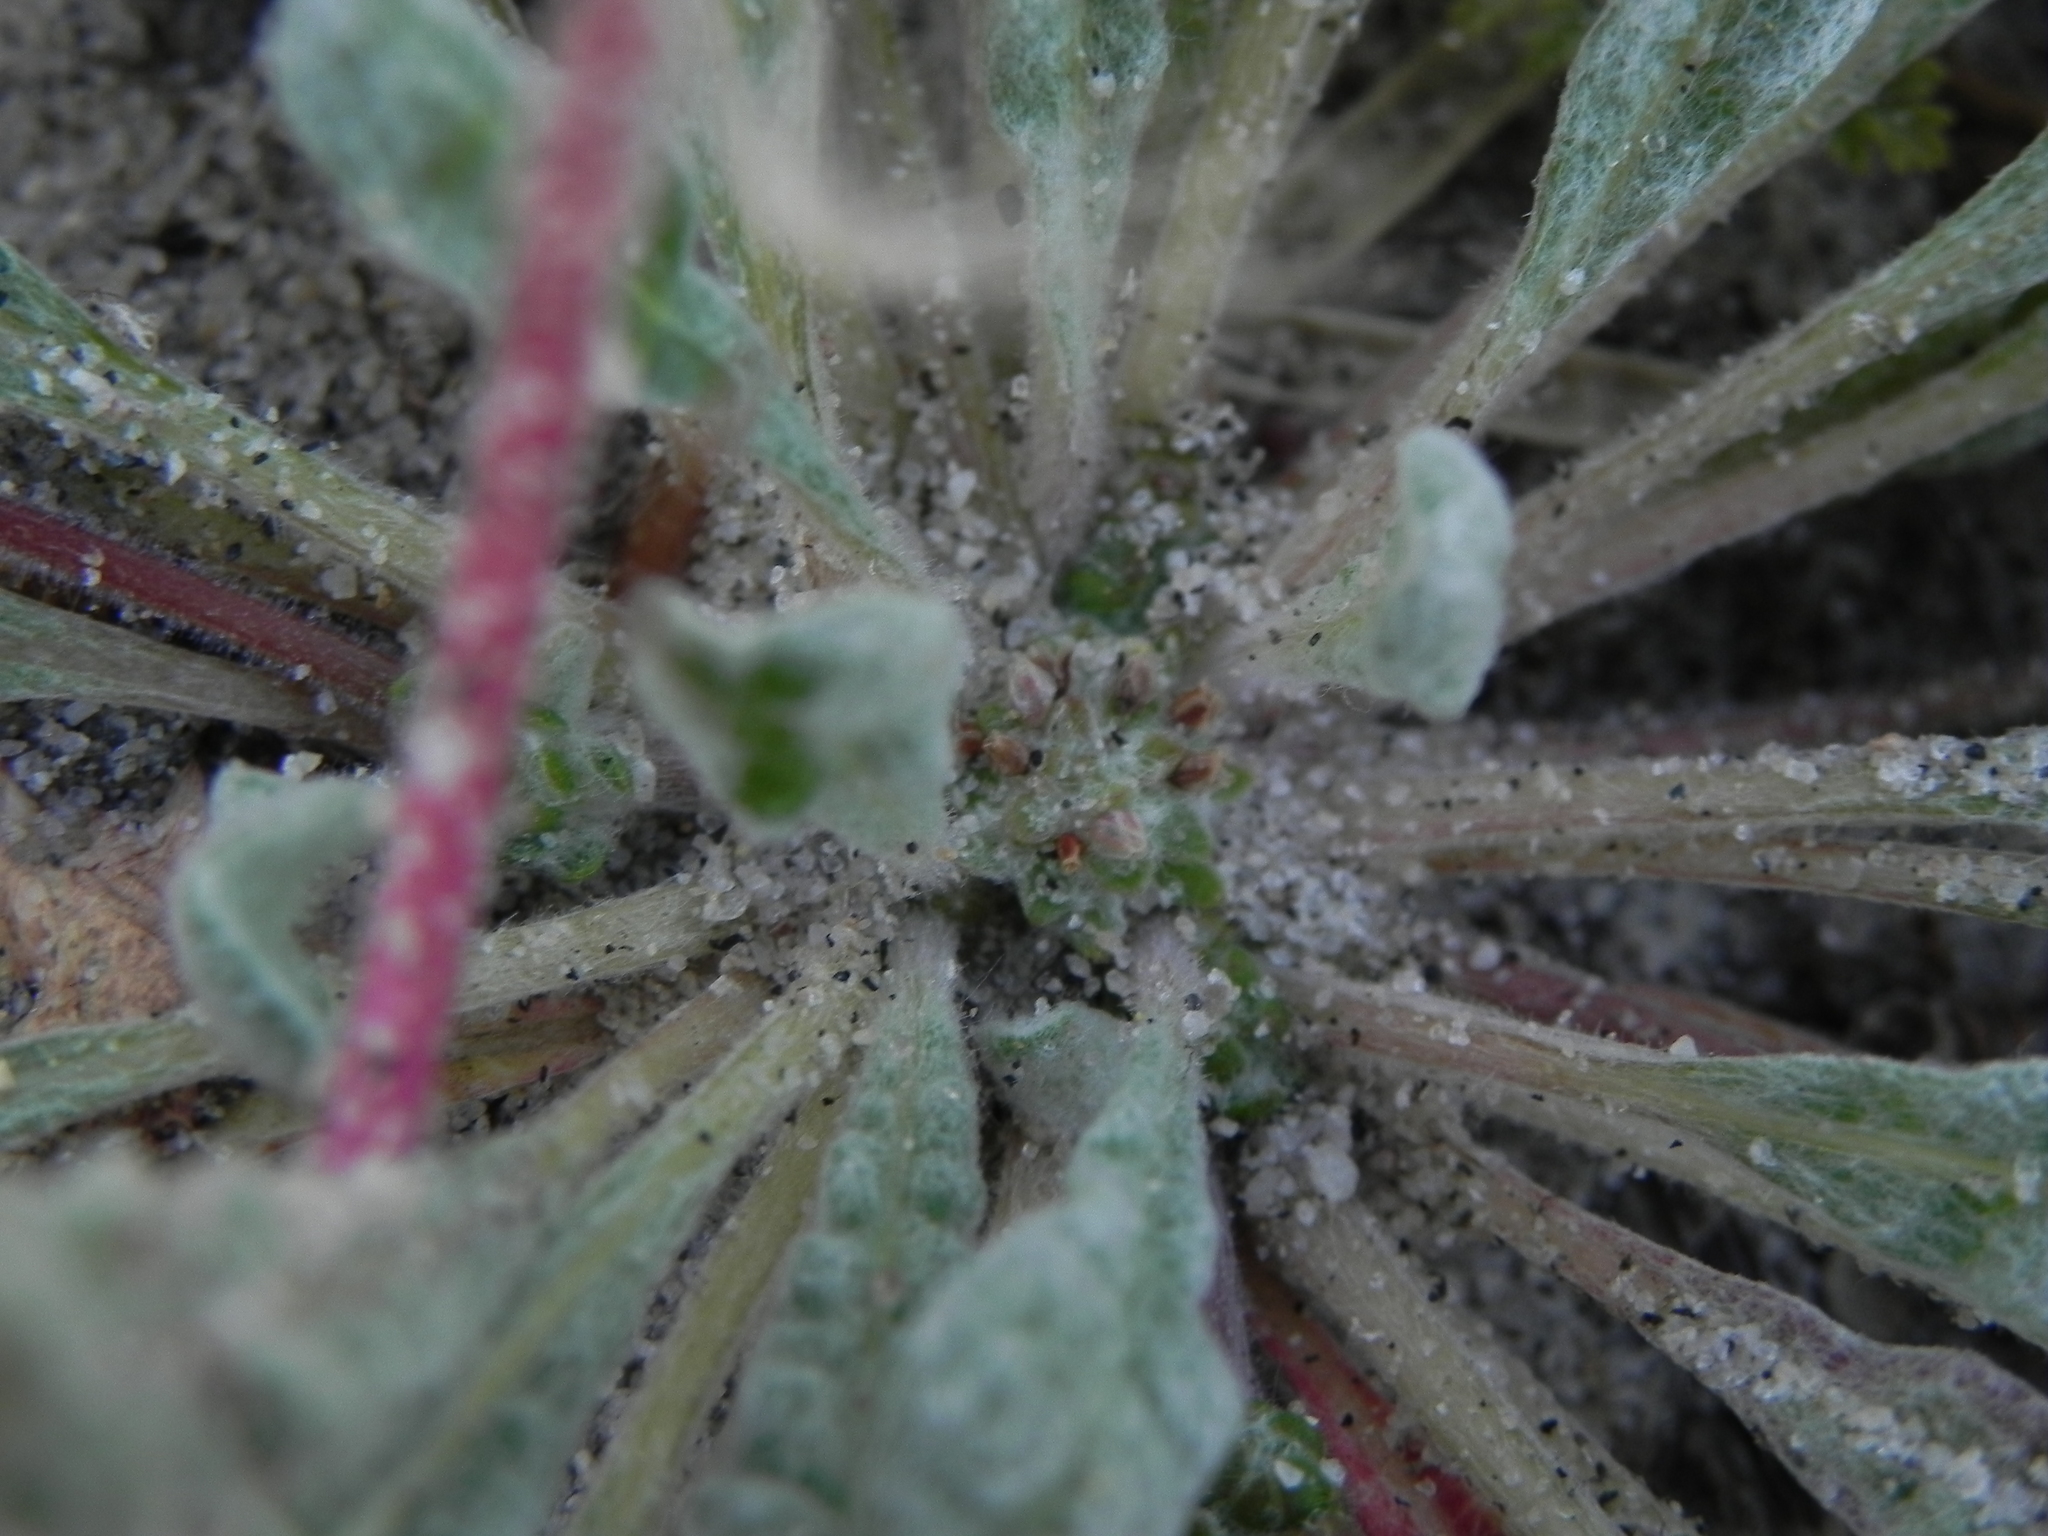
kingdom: Plantae
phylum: Tracheophyta
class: Magnoliopsida
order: Caryophyllales
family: Polygonaceae
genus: Nemacaulis
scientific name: Nemacaulis denudata
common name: Woolly-heads
